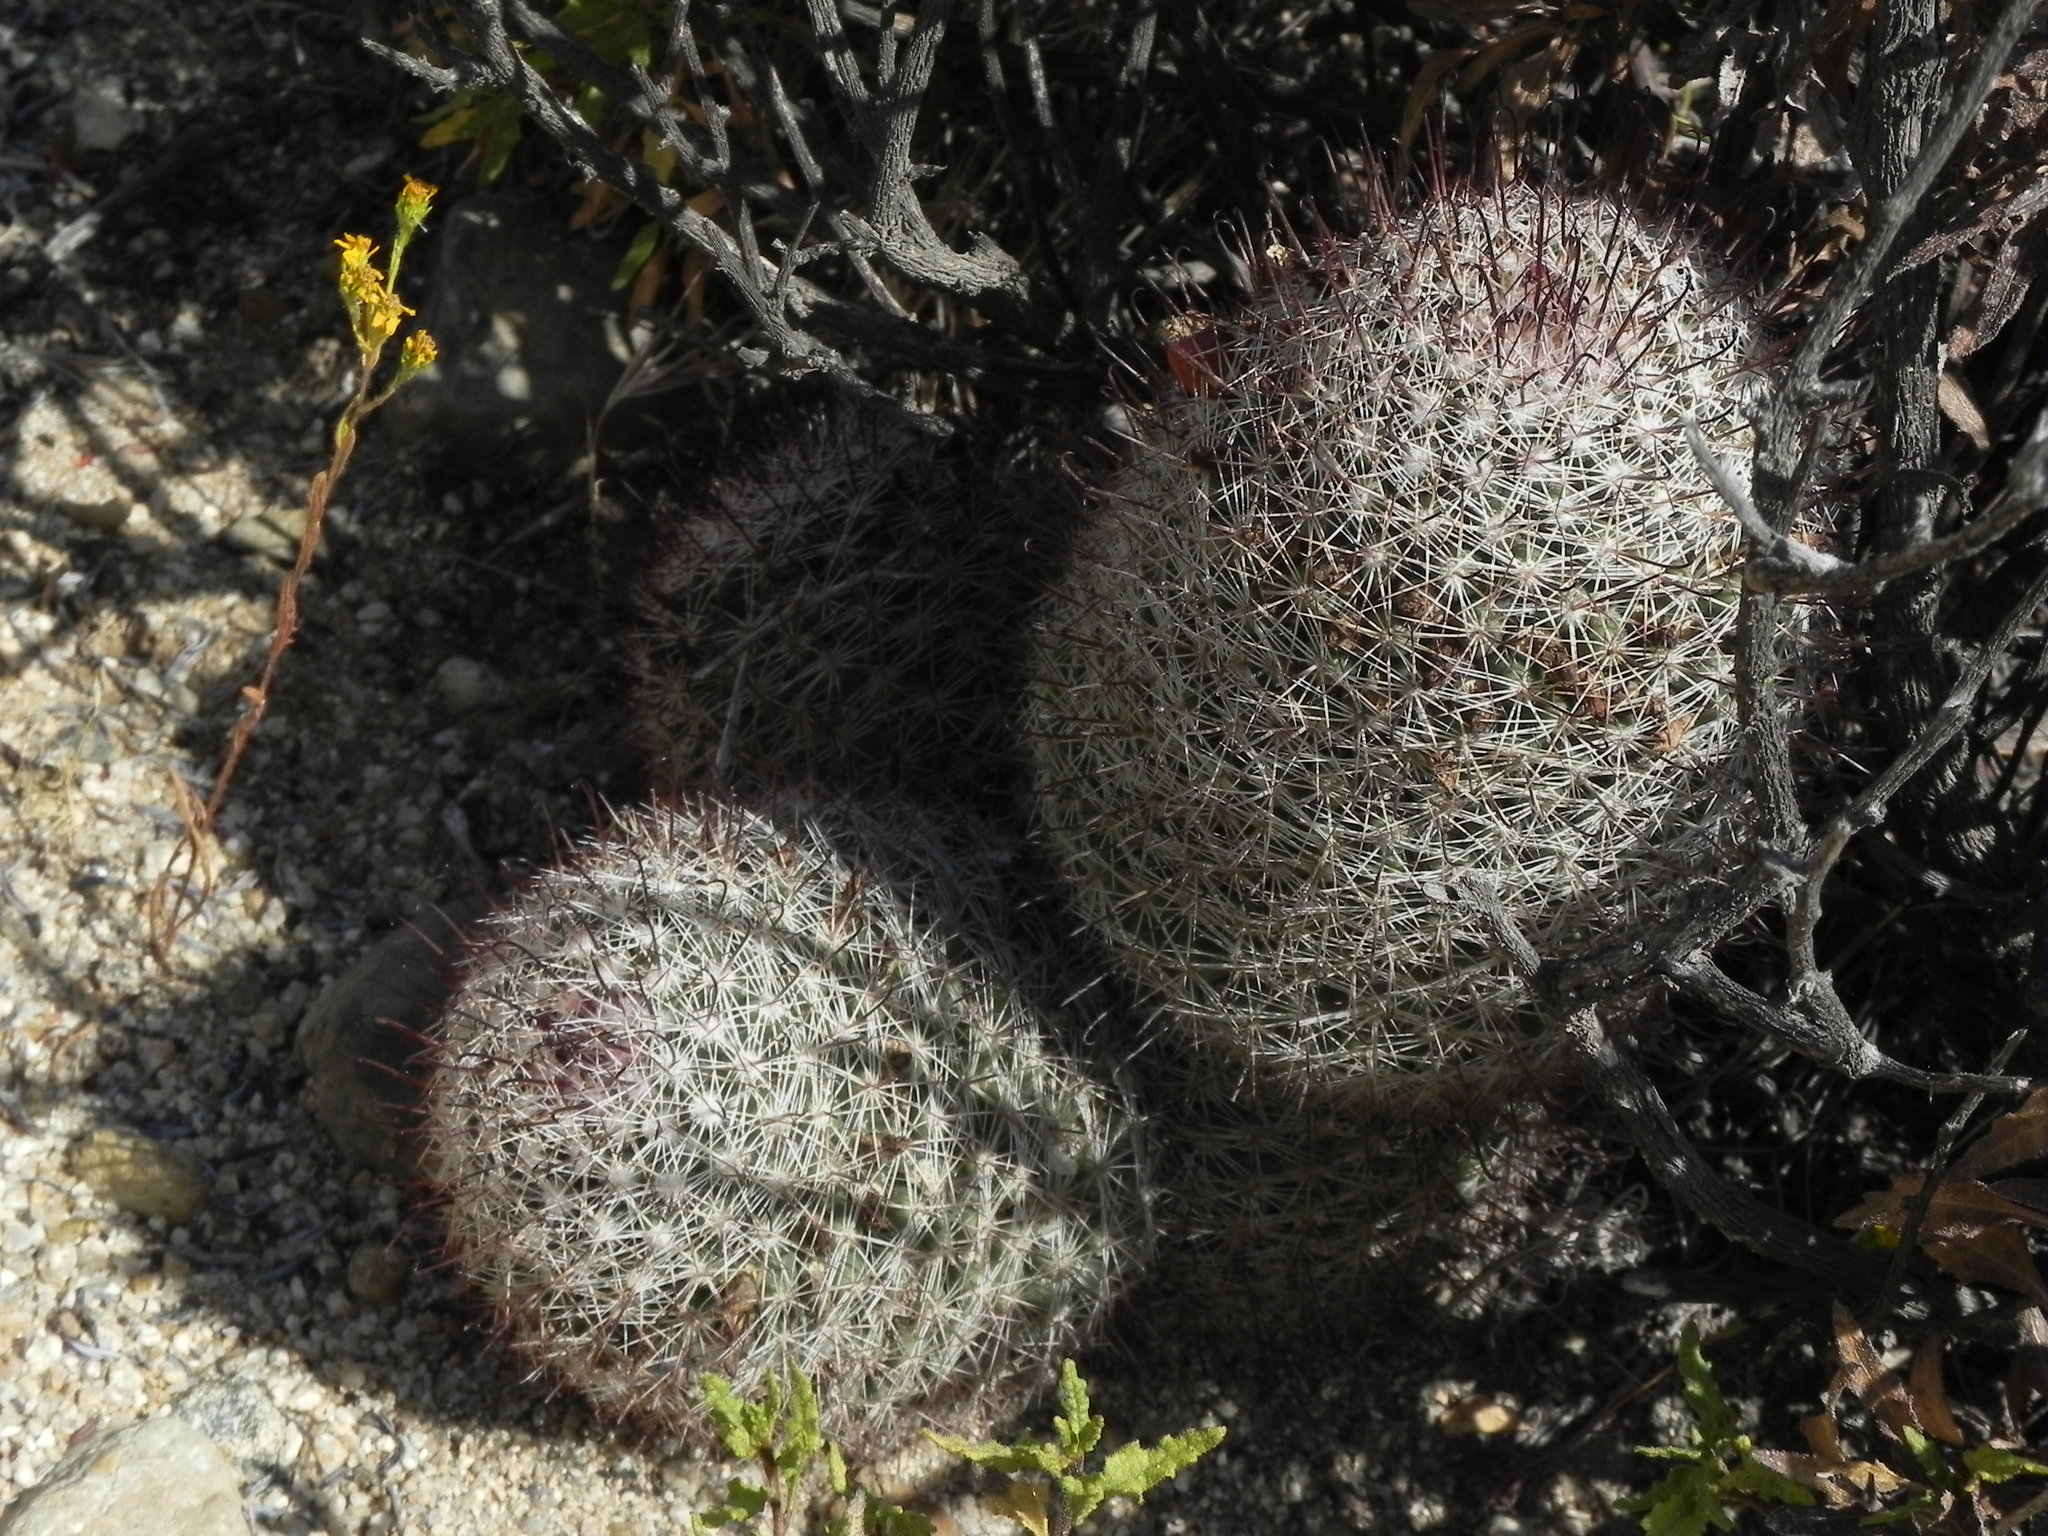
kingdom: Plantae
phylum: Tracheophyta
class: Magnoliopsida
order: Caryophyllales
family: Cactaceae
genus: Cochemiea
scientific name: Cochemiea dioica
